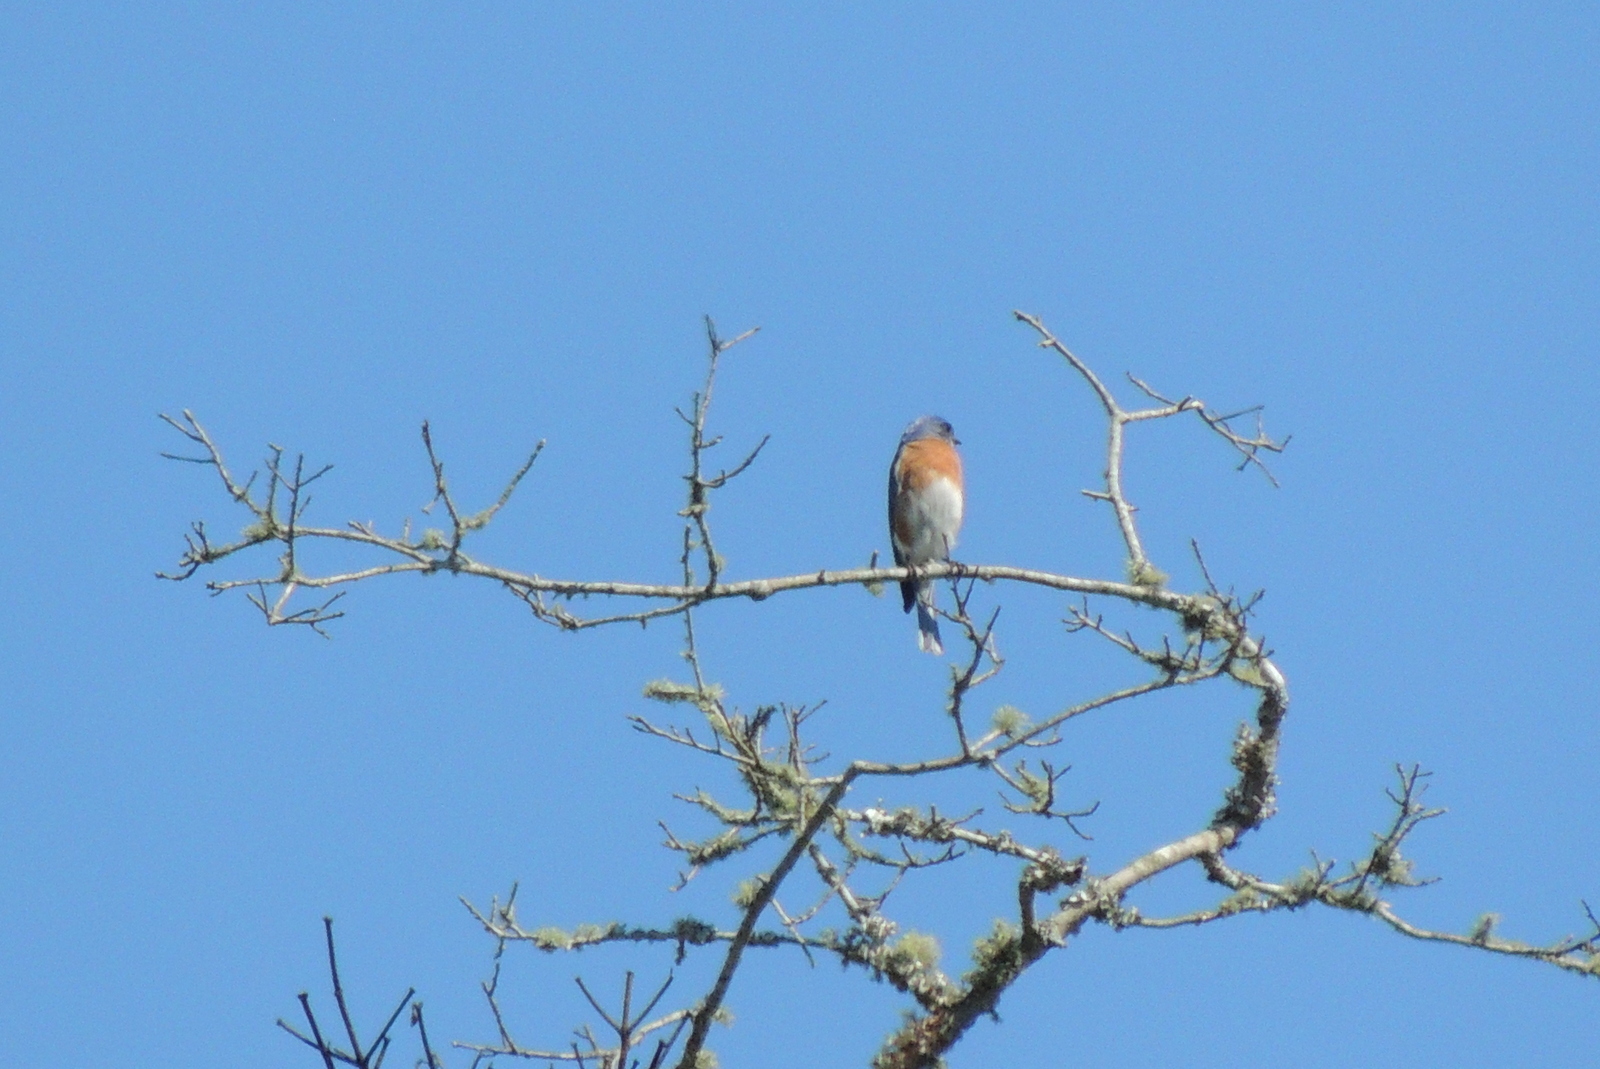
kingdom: Animalia
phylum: Chordata
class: Aves
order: Passeriformes
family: Turdidae
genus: Sialia
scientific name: Sialia sialis
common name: Eastern bluebird
